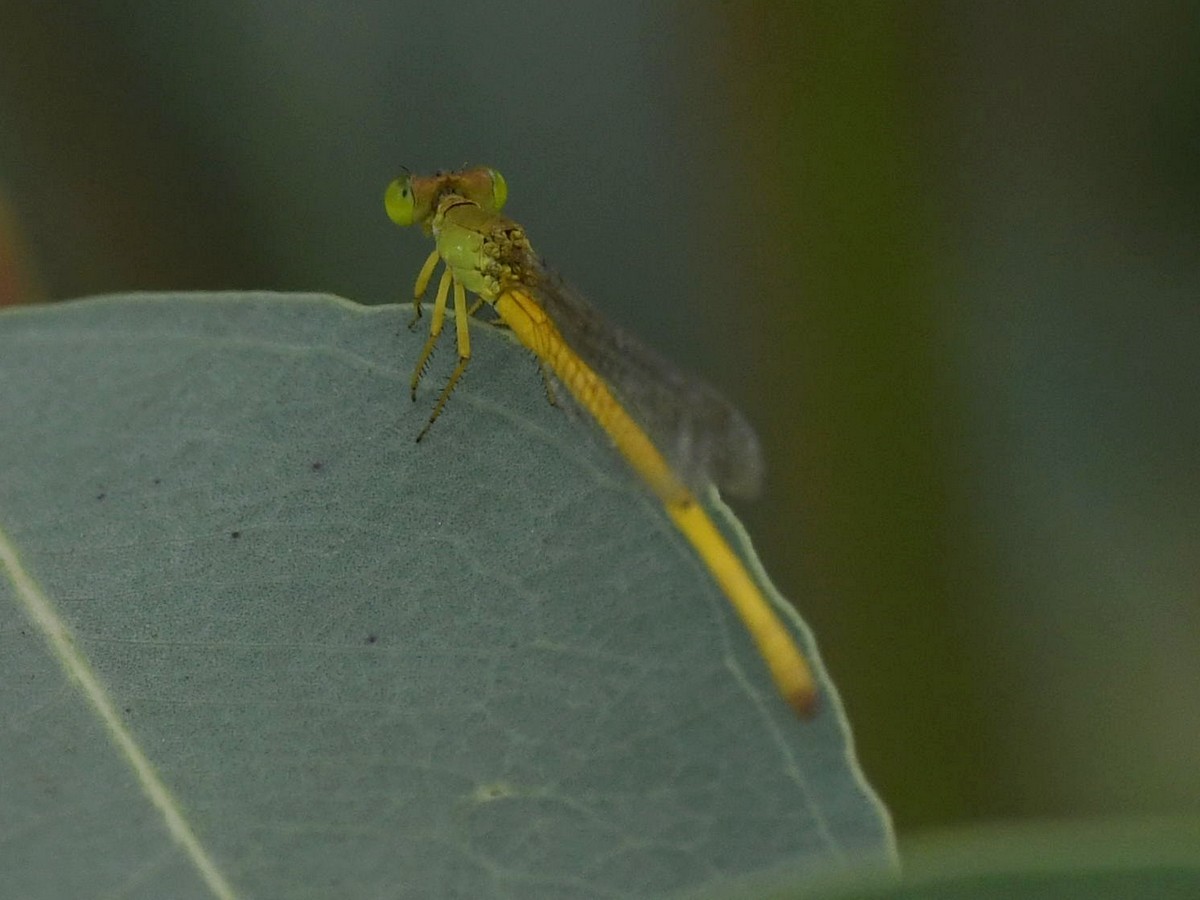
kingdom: Animalia
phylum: Arthropoda
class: Insecta
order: Odonata
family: Coenagrionidae
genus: Ceriagrion
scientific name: Ceriagrion coromandelianum
